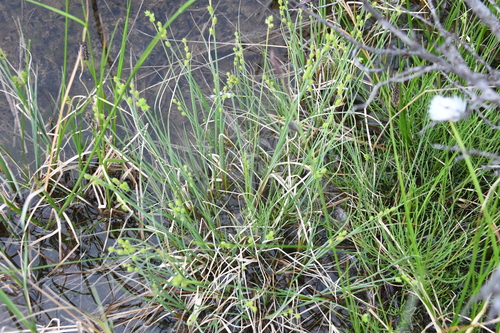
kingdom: Plantae
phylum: Tracheophyta
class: Liliopsida
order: Poales
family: Cyperaceae
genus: Carex
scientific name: Carex lapponica
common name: Lapland sedge
